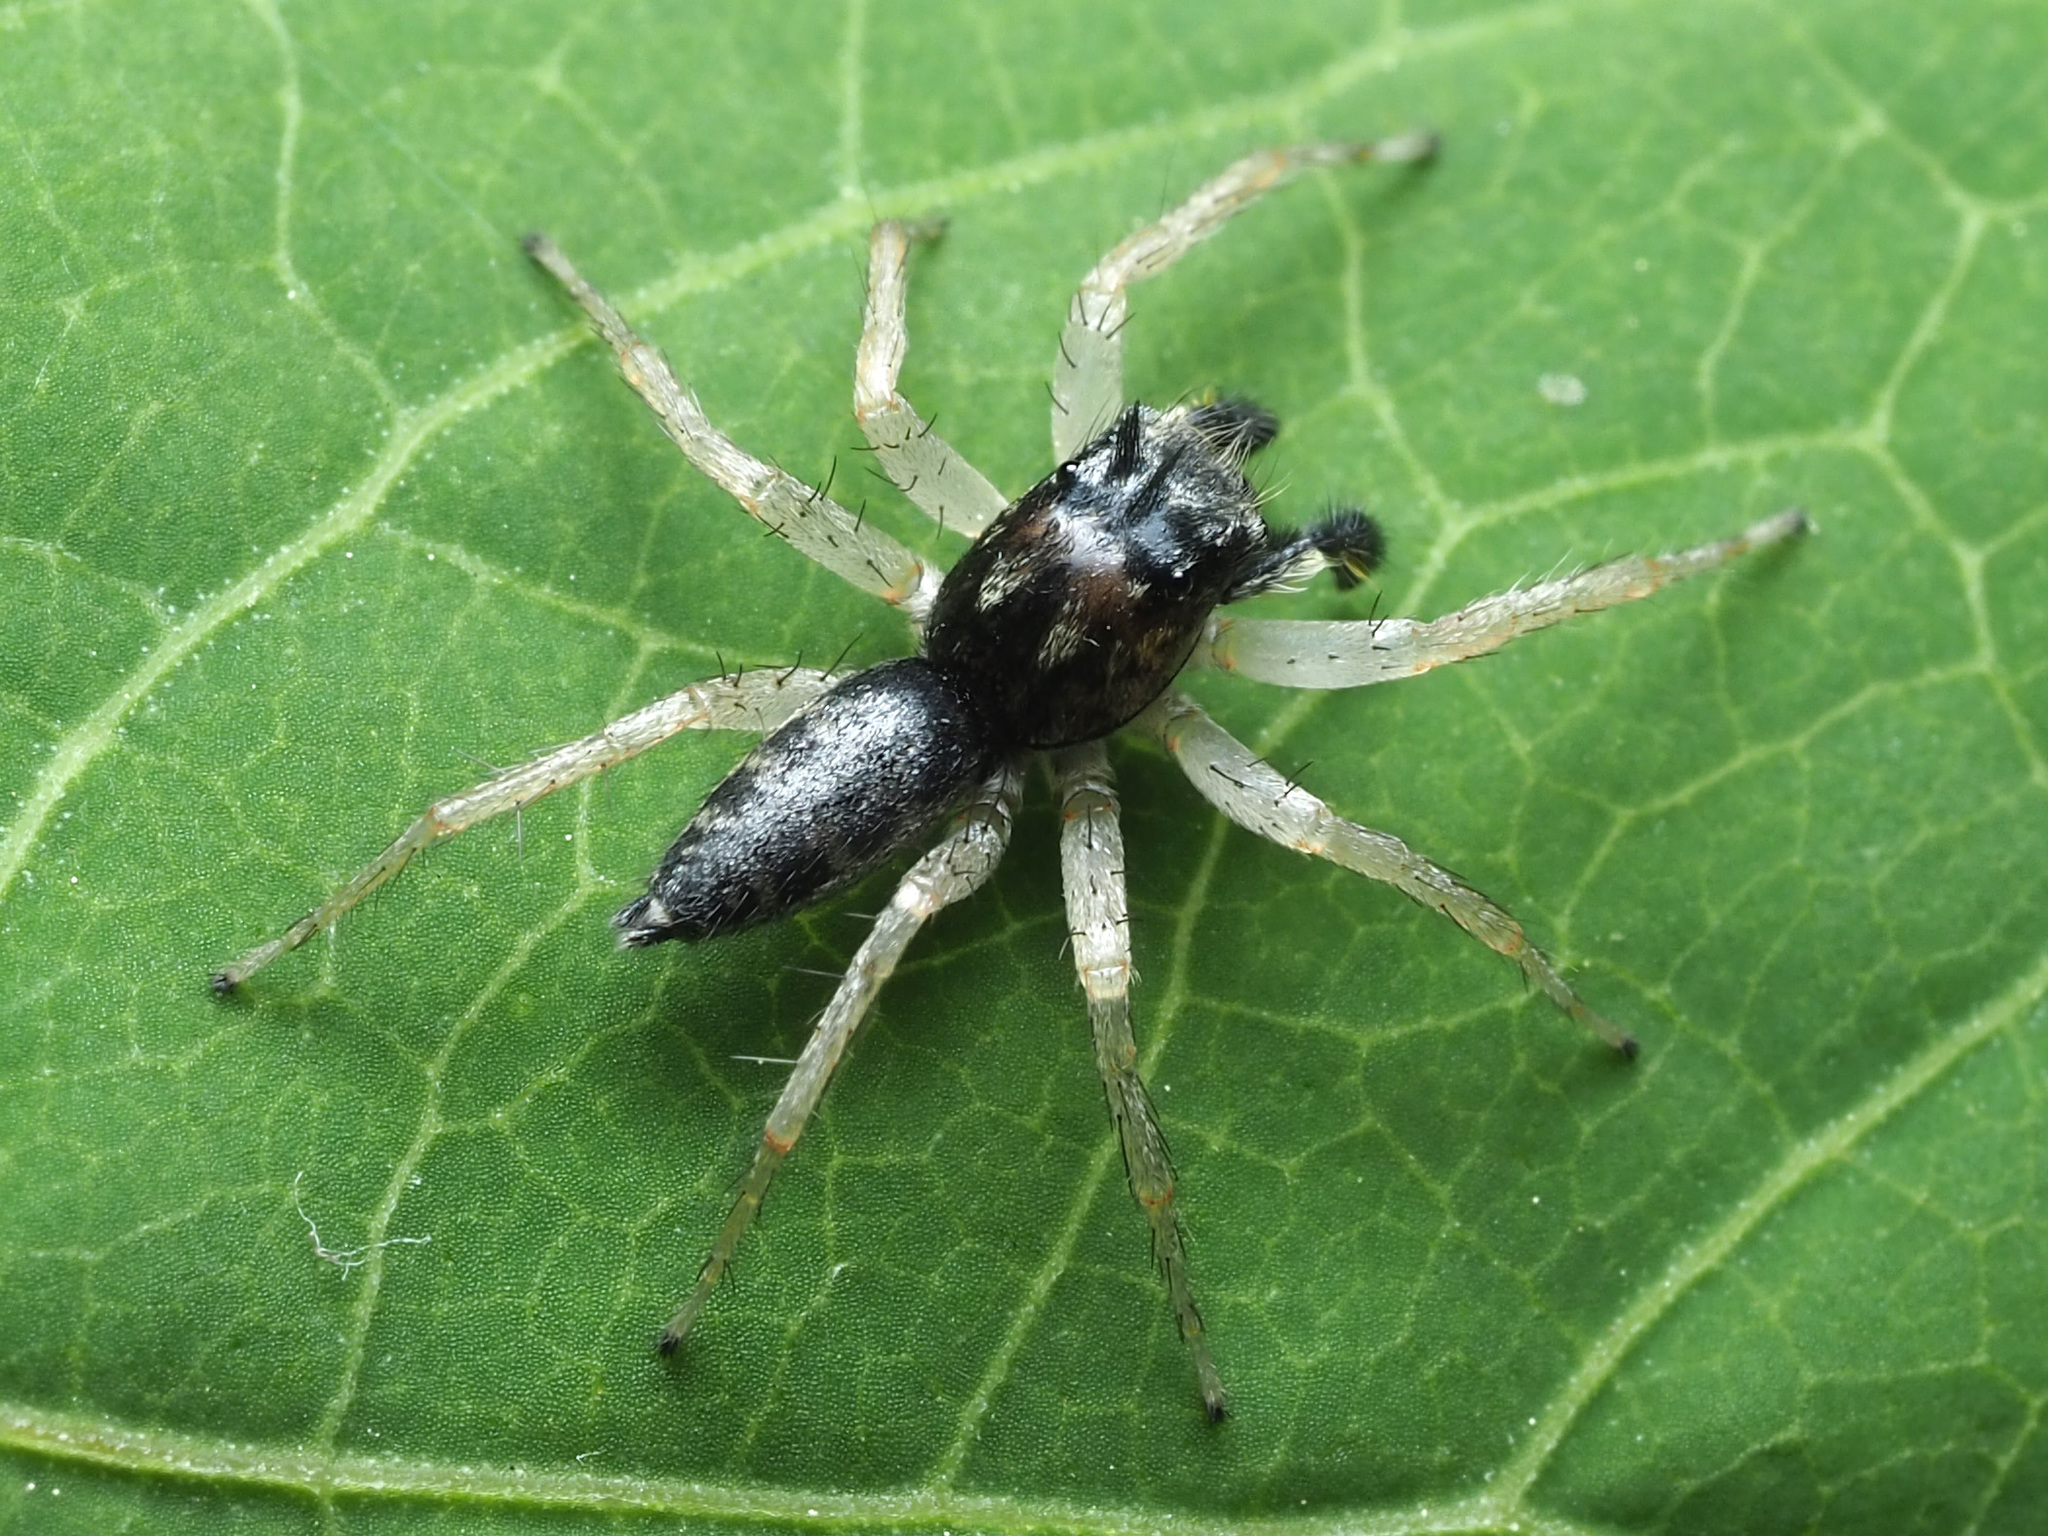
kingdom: Animalia
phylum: Arthropoda
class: Arachnida
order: Araneae
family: Salticidae
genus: Maevia
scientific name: Maevia inclemens
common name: Dimorphic jumper
